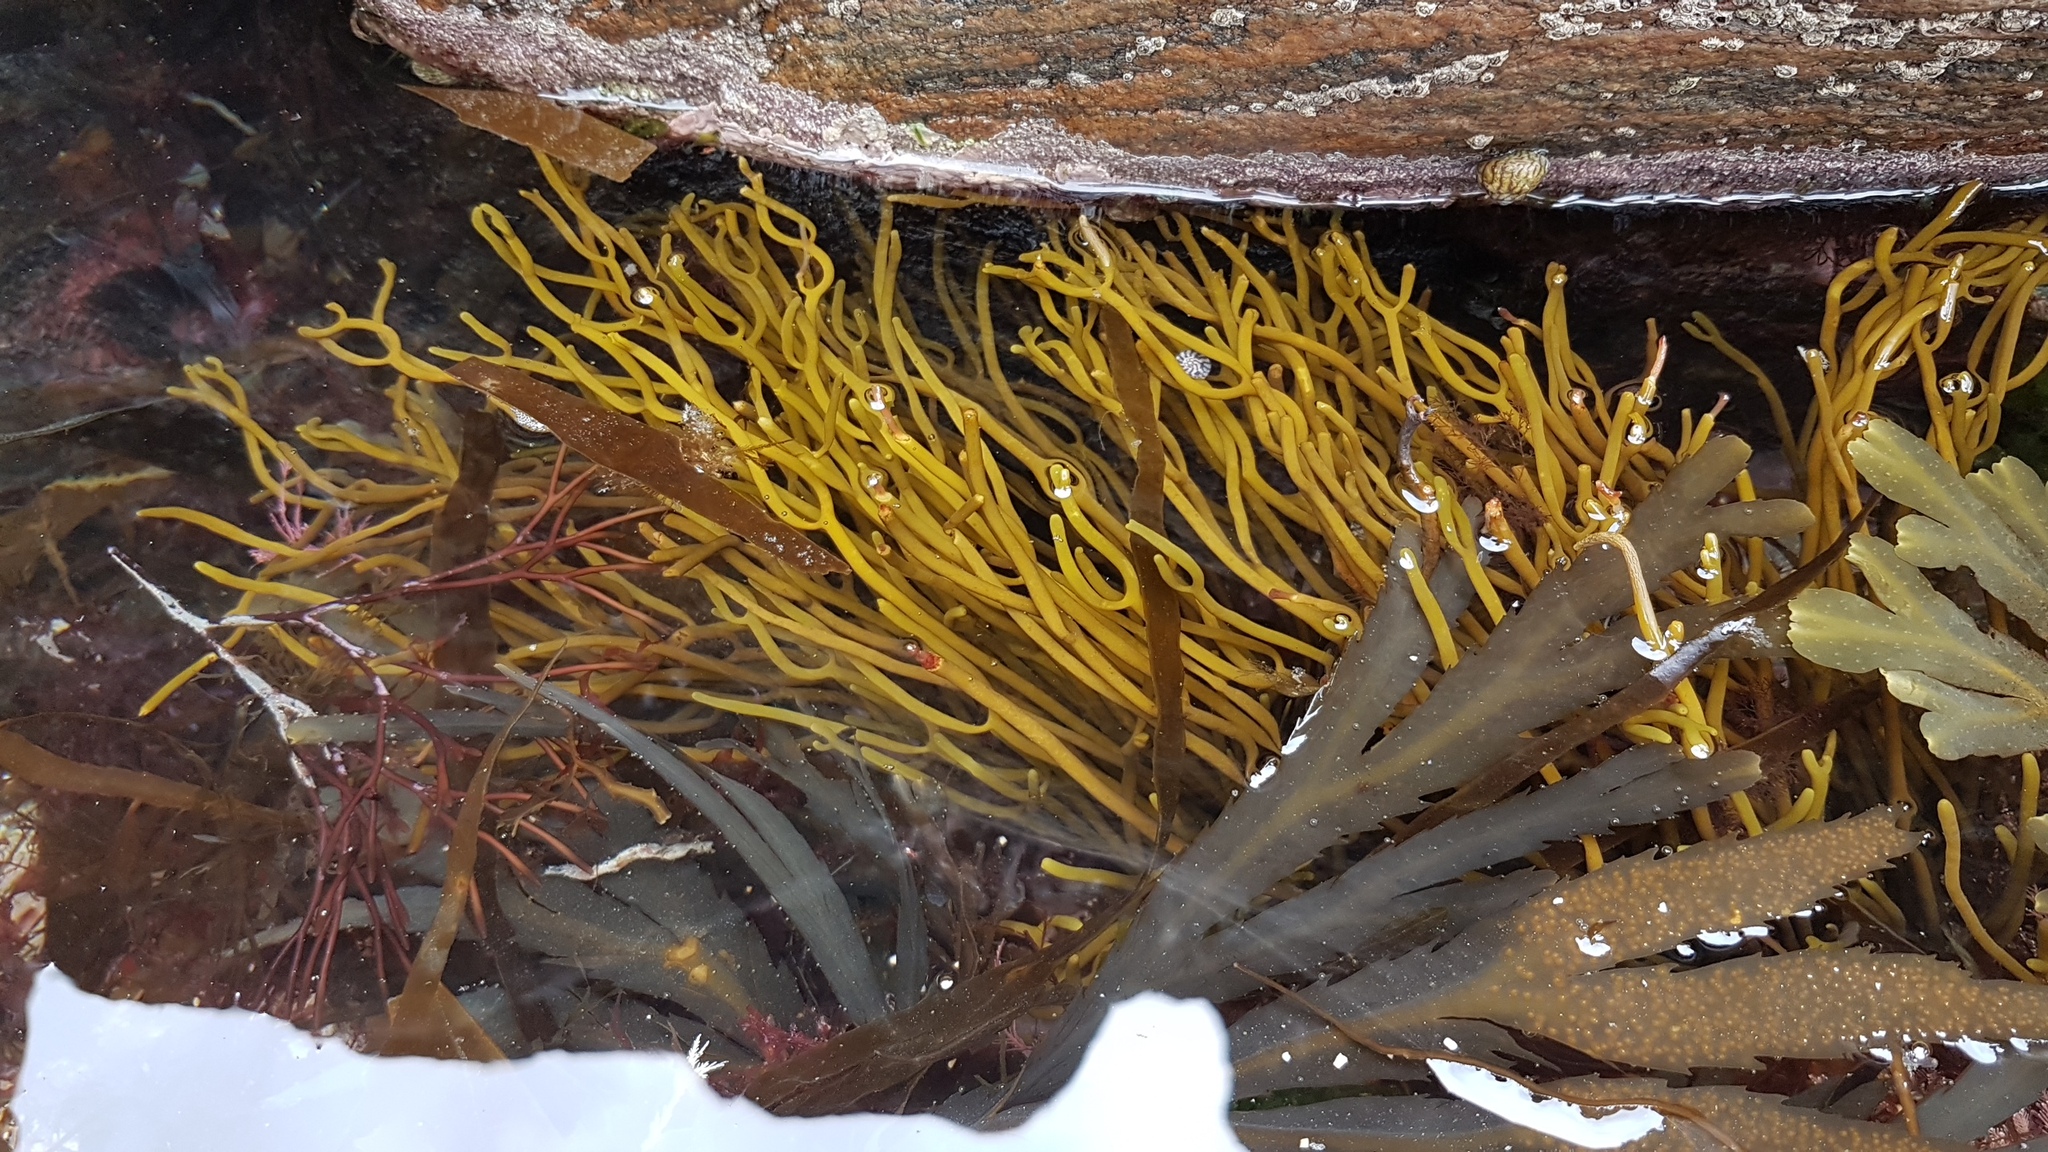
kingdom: Chromista
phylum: Ochrophyta
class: Phaeophyceae
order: Fucales
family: Sargassaceae
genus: Bifurcaria
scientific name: Bifurcaria bifurcata
